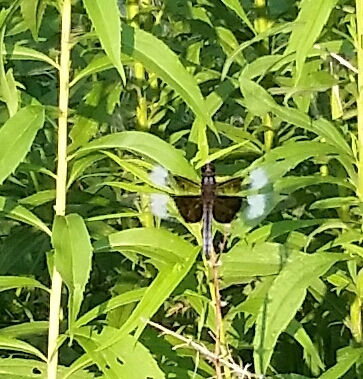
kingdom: Animalia
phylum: Arthropoda
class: Insecta
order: Odonata
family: Libellulidae
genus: Libellula
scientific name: Libellula luctuosa
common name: Widow skimmer
